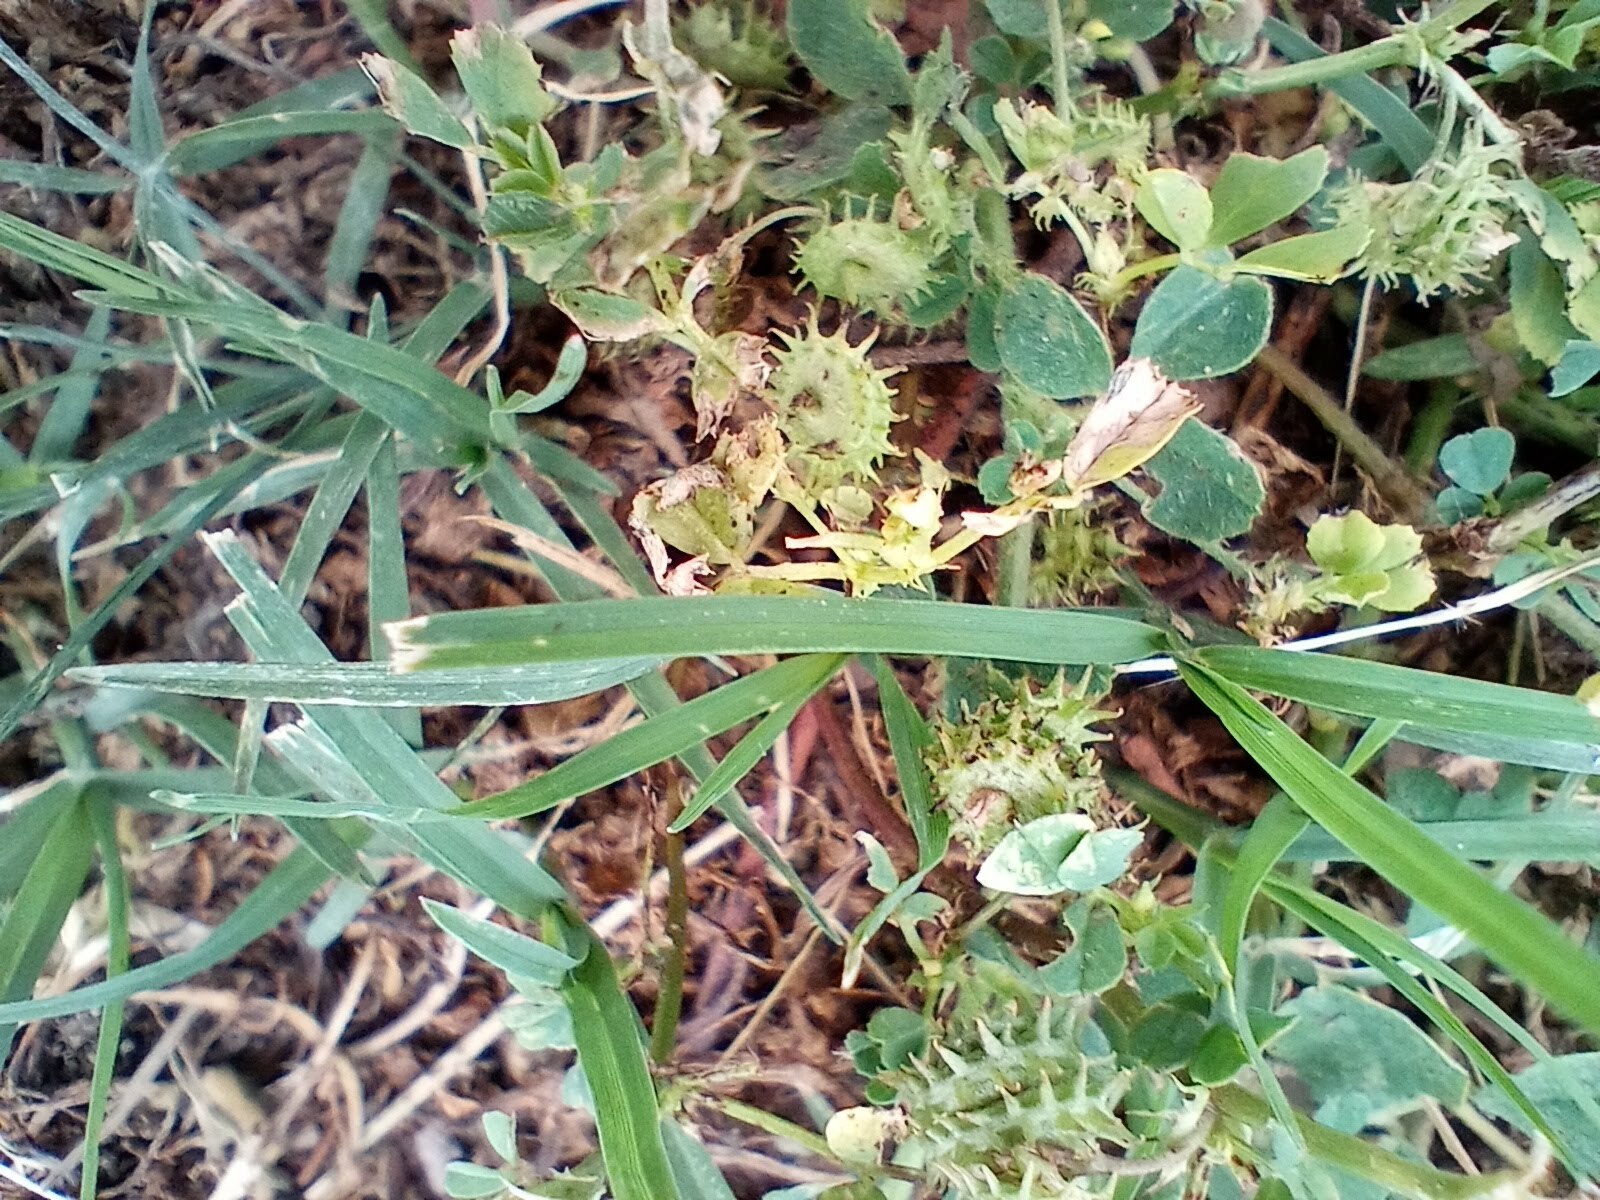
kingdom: Plantae
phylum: Tracheophyta
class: Magnoliopsida
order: Fabales
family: Fabaceae
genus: Medicago
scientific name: Medicago polymorpha
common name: Burclover
